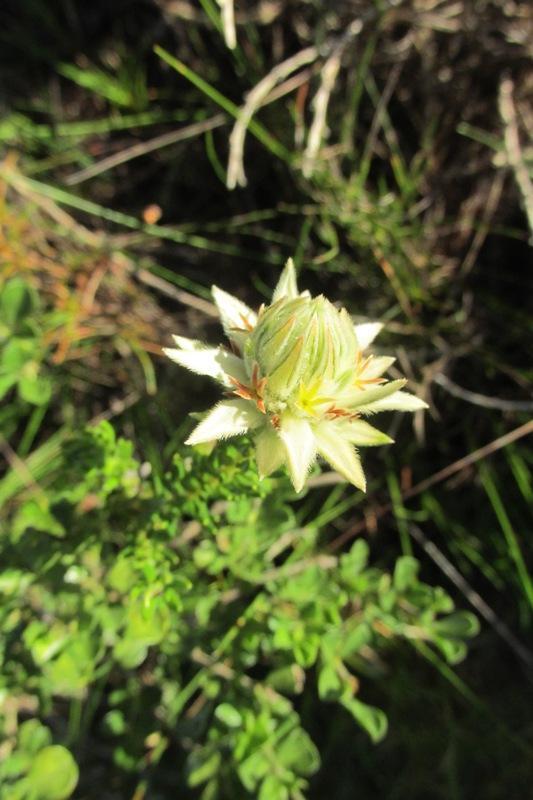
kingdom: Plantae
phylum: Tracheophyta
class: Magnoliopsida
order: Rosales
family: Rhamnaceae
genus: Phylica
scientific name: Phylica dodii
